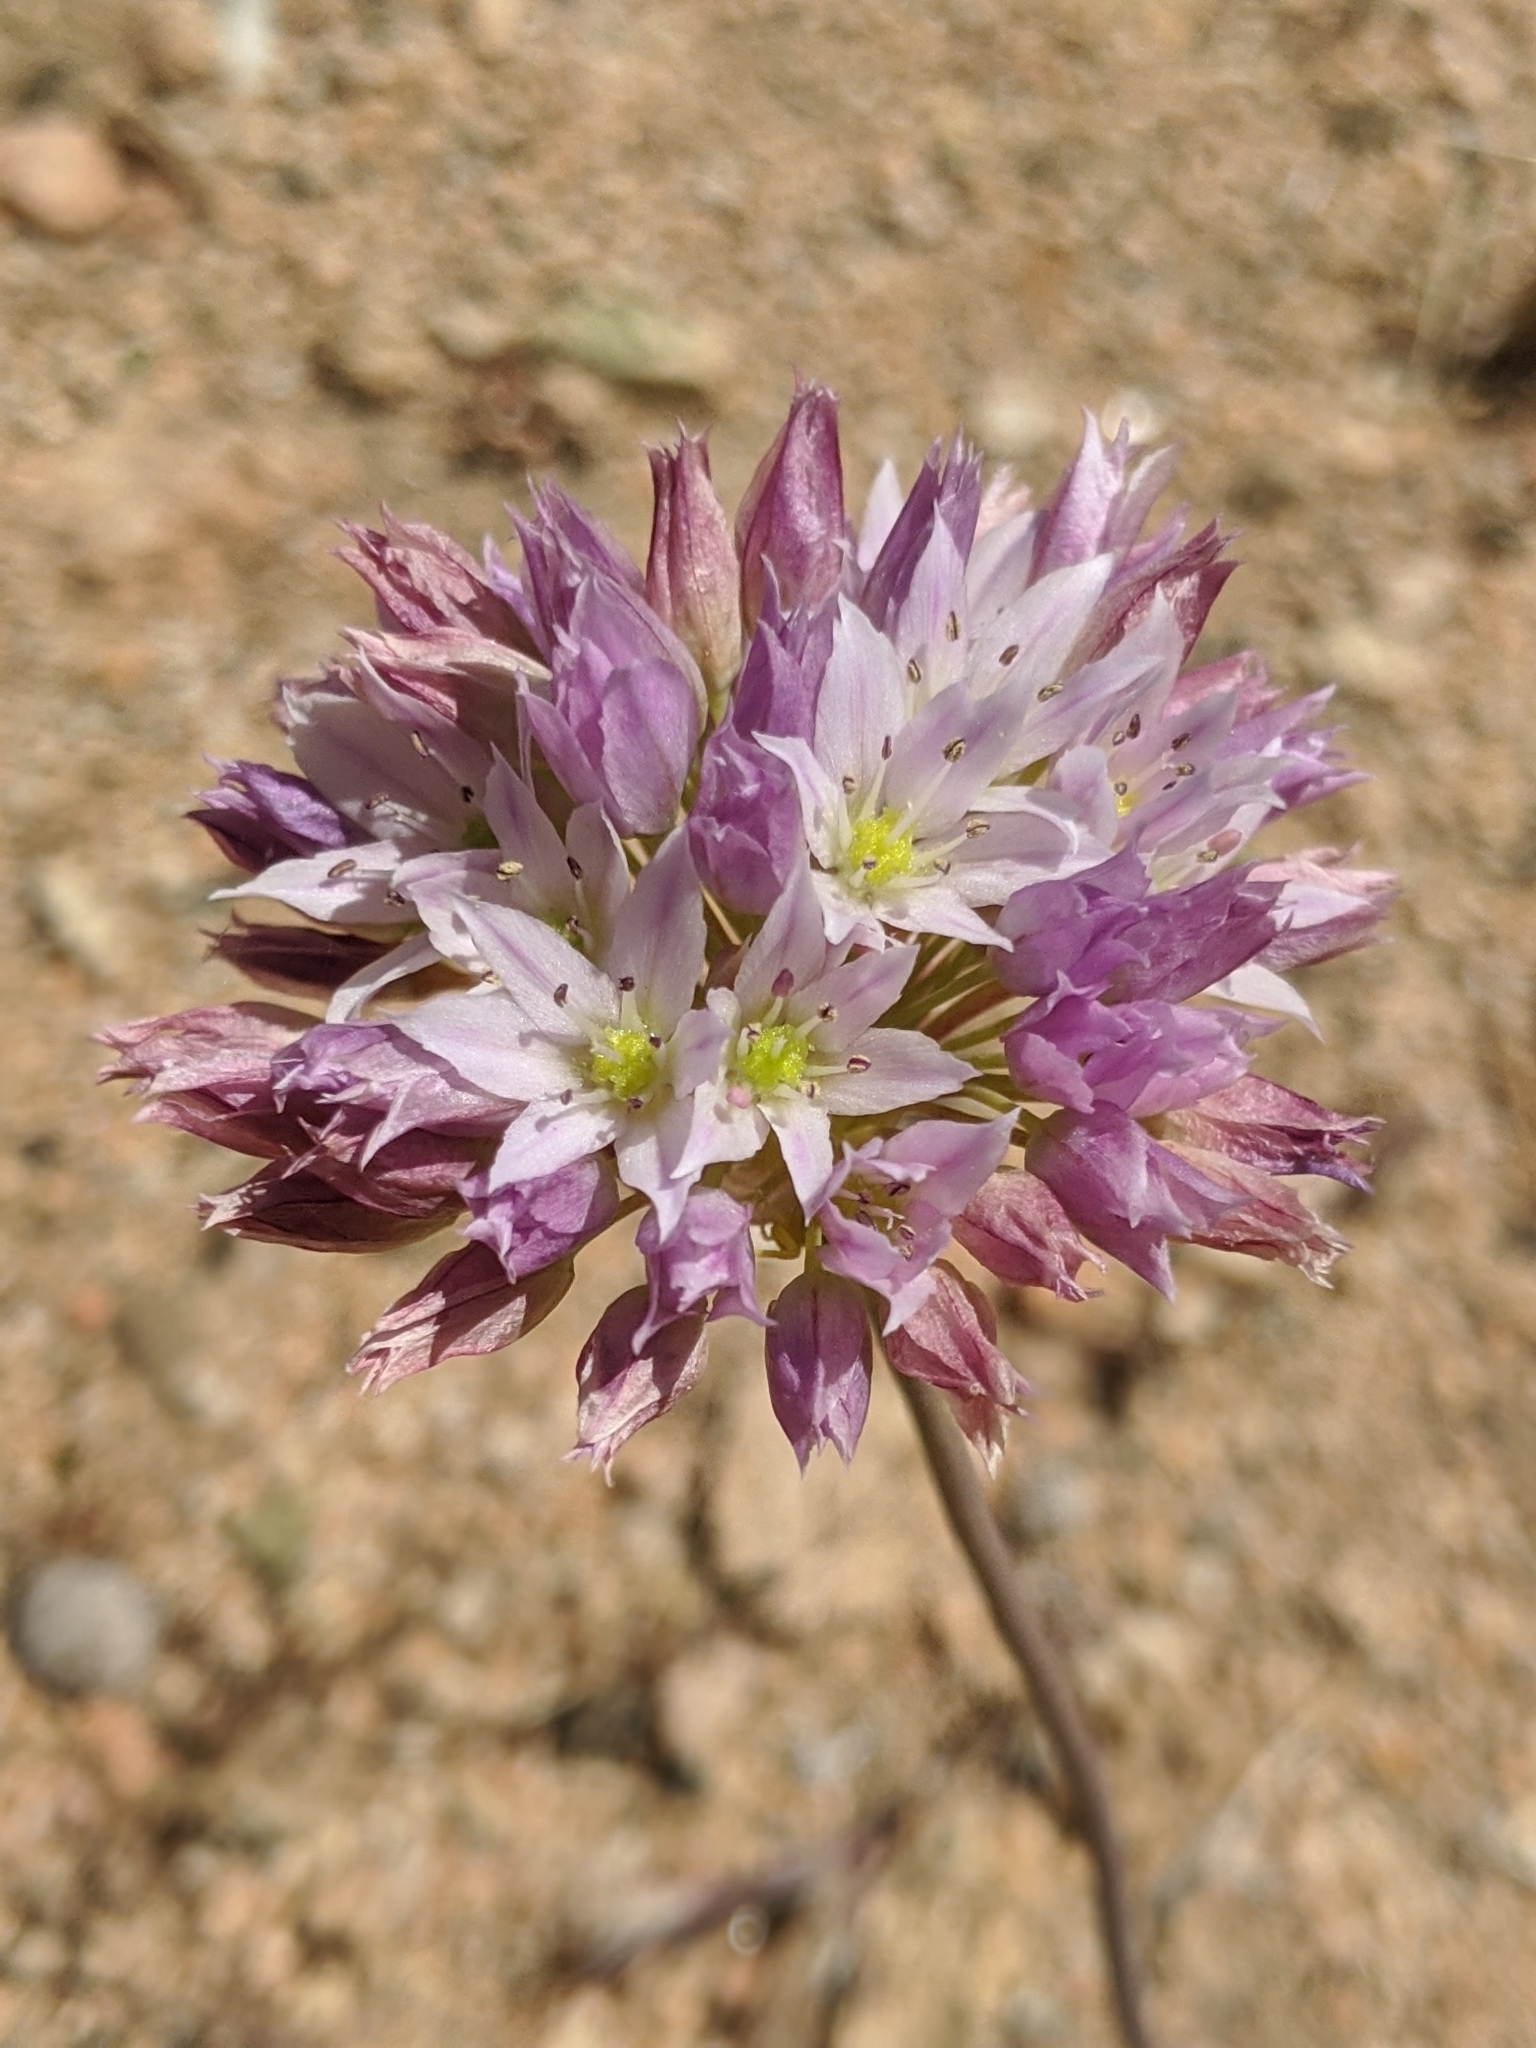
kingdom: Plantae
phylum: Tracheophyta
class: Liliopsida
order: Asparagales
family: Amaryllidaceae
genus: Allium
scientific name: Allium fimbriatum
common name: Fringed onion
